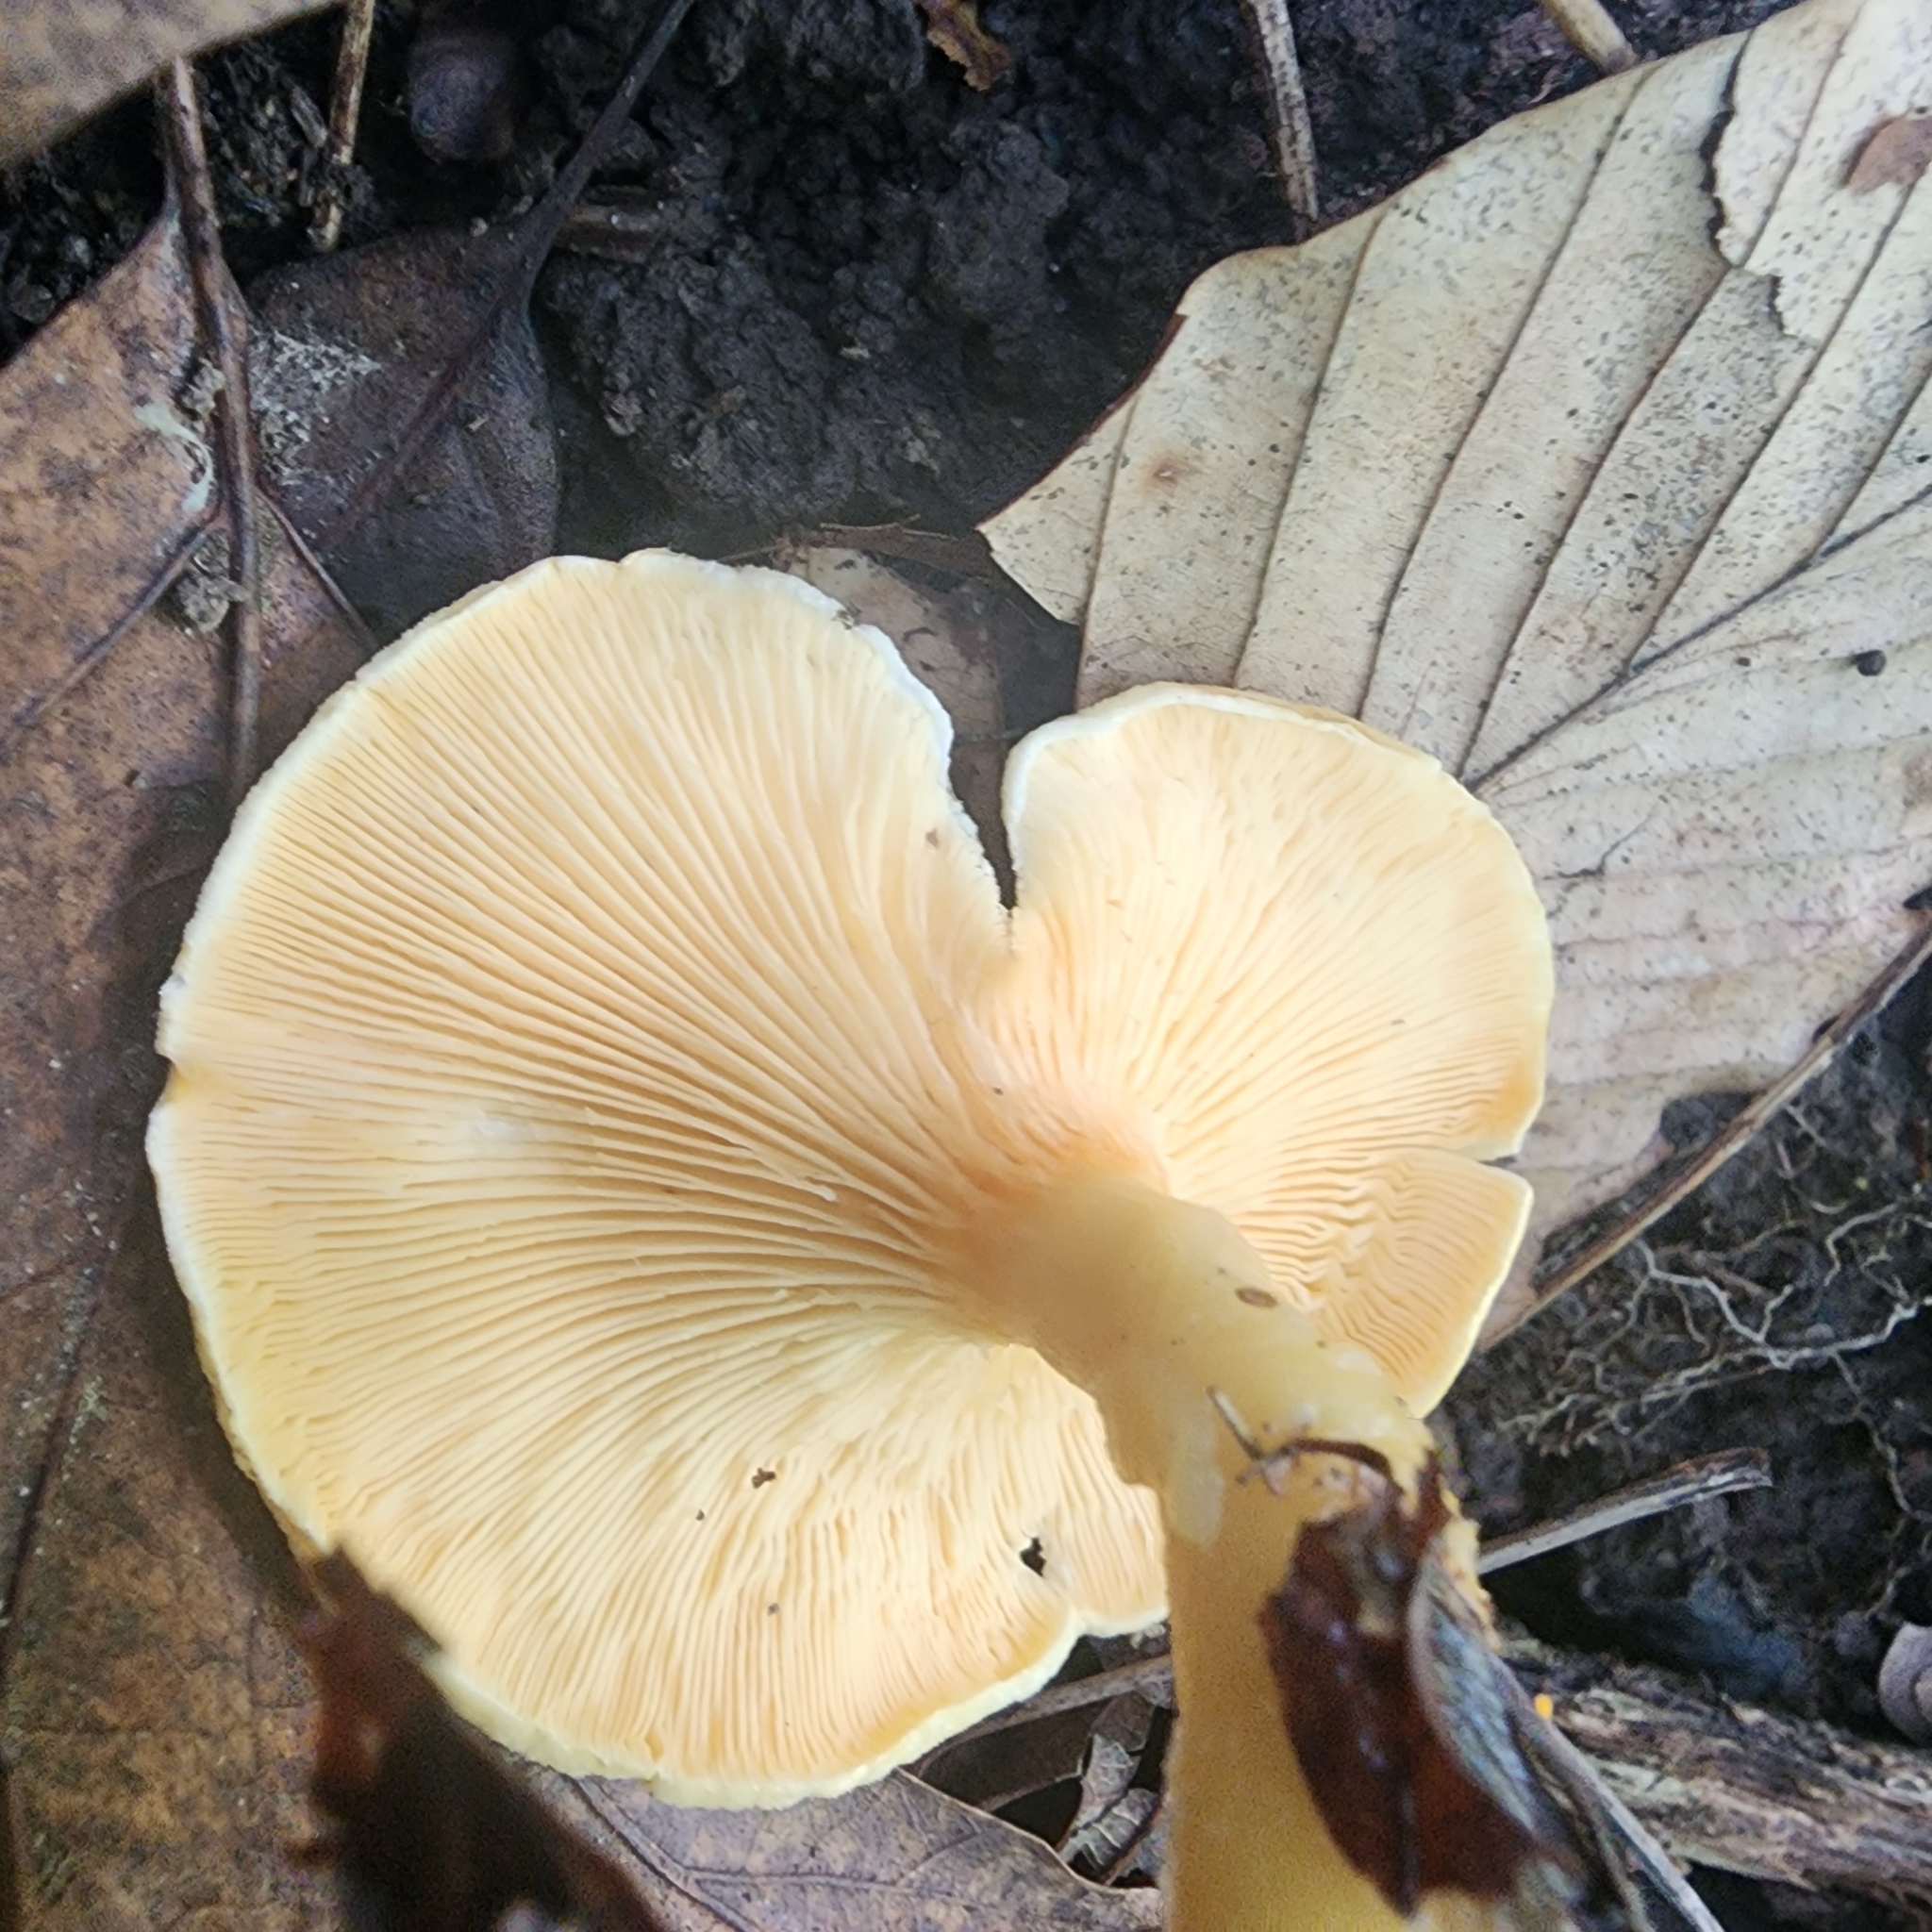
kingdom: Fungi
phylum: Basidiomycota
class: Agaricomycetes
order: Boletales
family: Hygrophoropsidaceae
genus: Hygrophoropsis
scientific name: Hygrophoropsis aurantiaca
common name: False chanterelle
